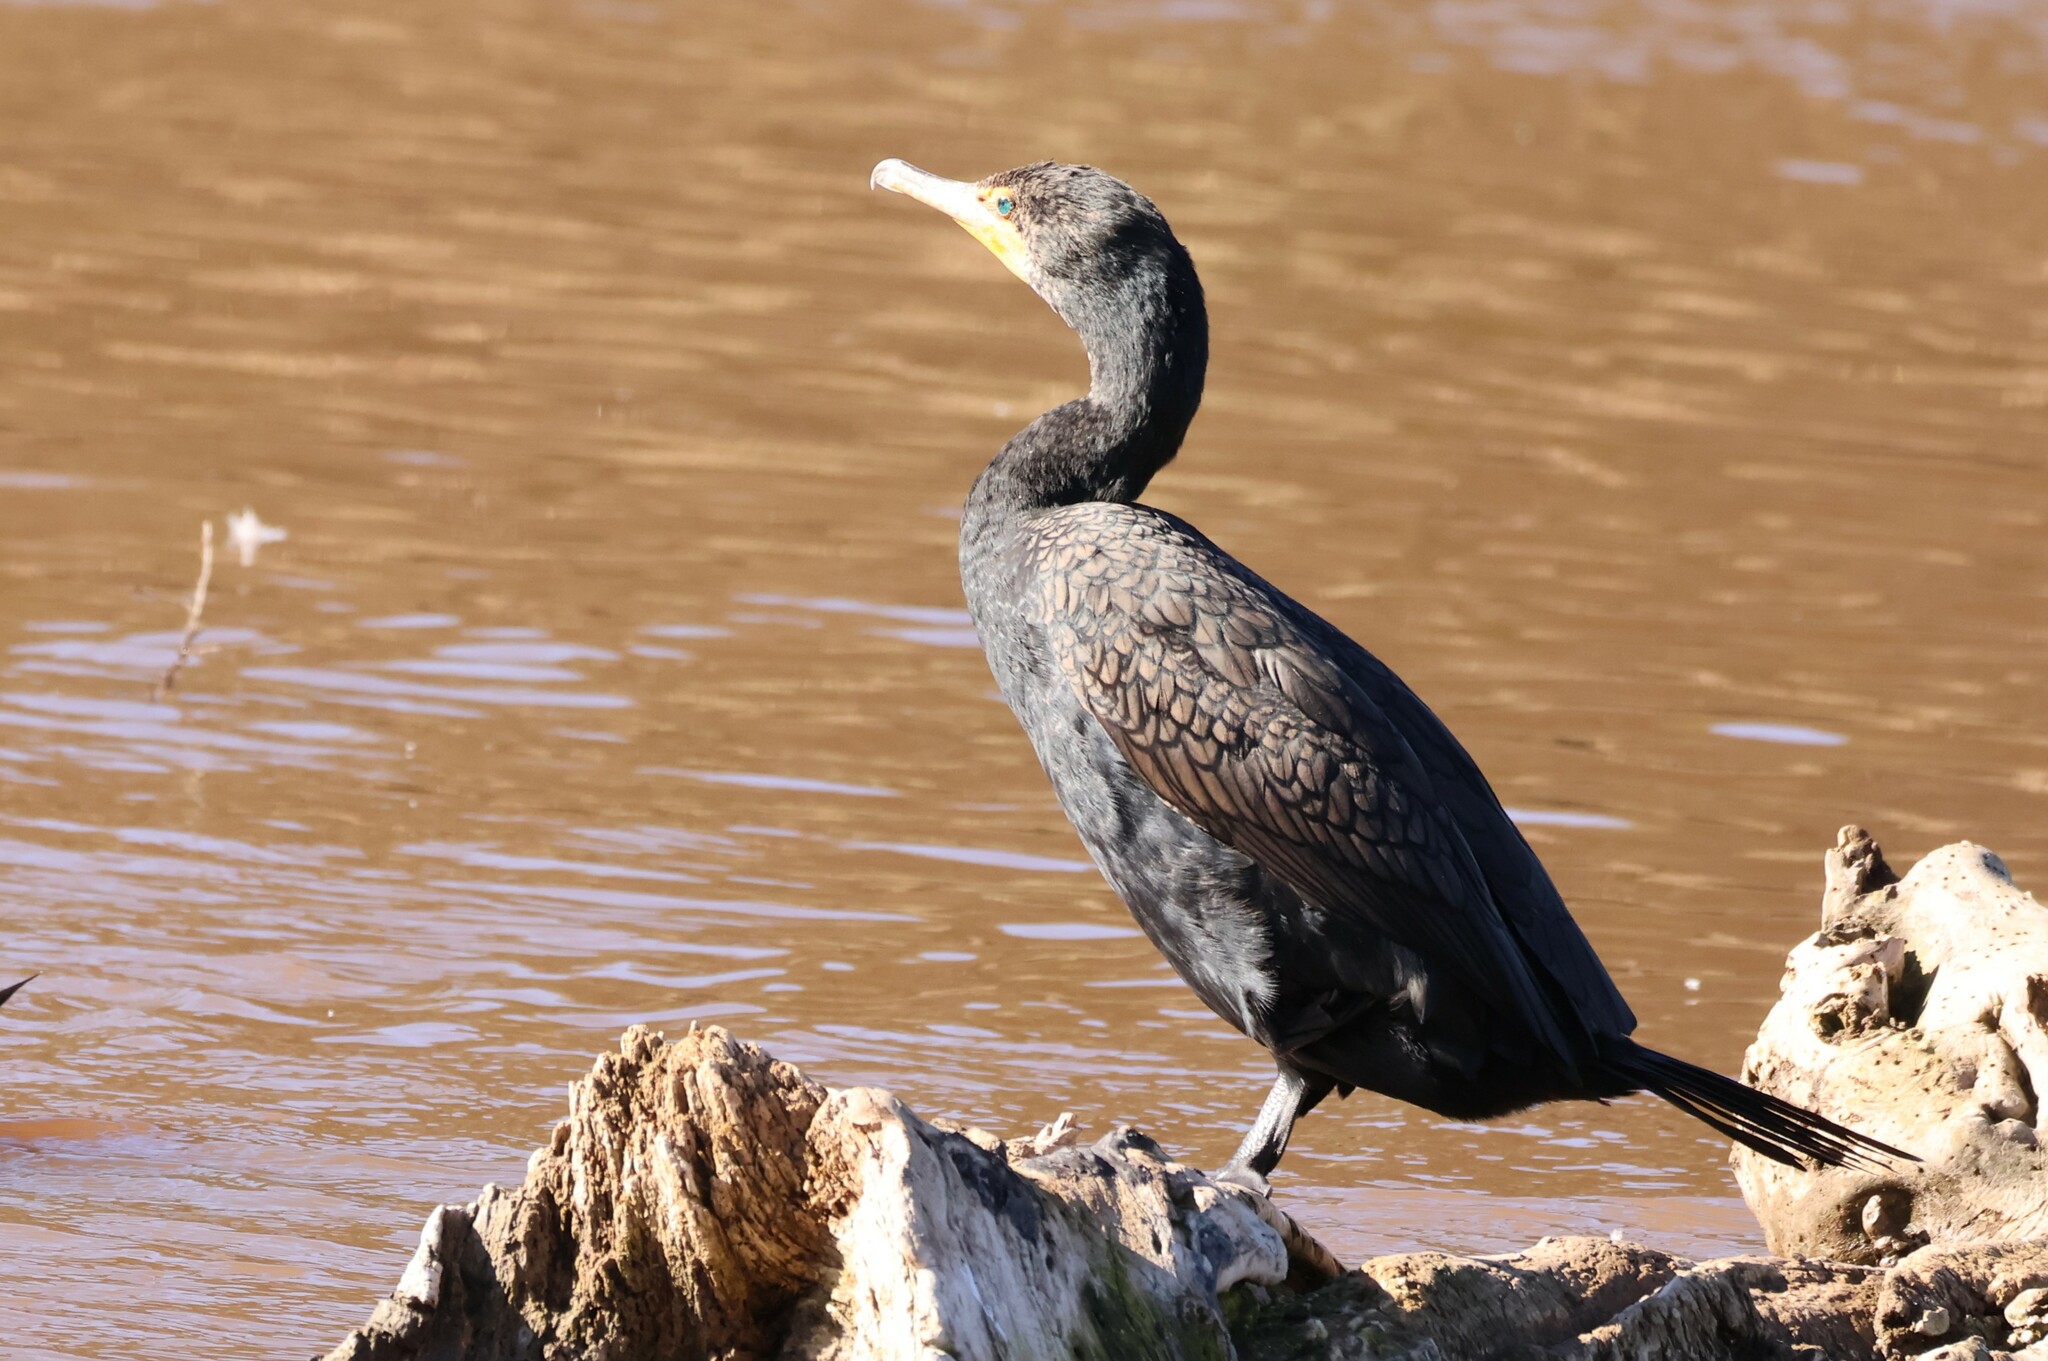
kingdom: Animalia
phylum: Chordata
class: Aves
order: Suliformes
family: Phalacrocoracidae
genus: Phalacrocorax
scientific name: Phalacrocorax auritus
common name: Double-crested cormorant
